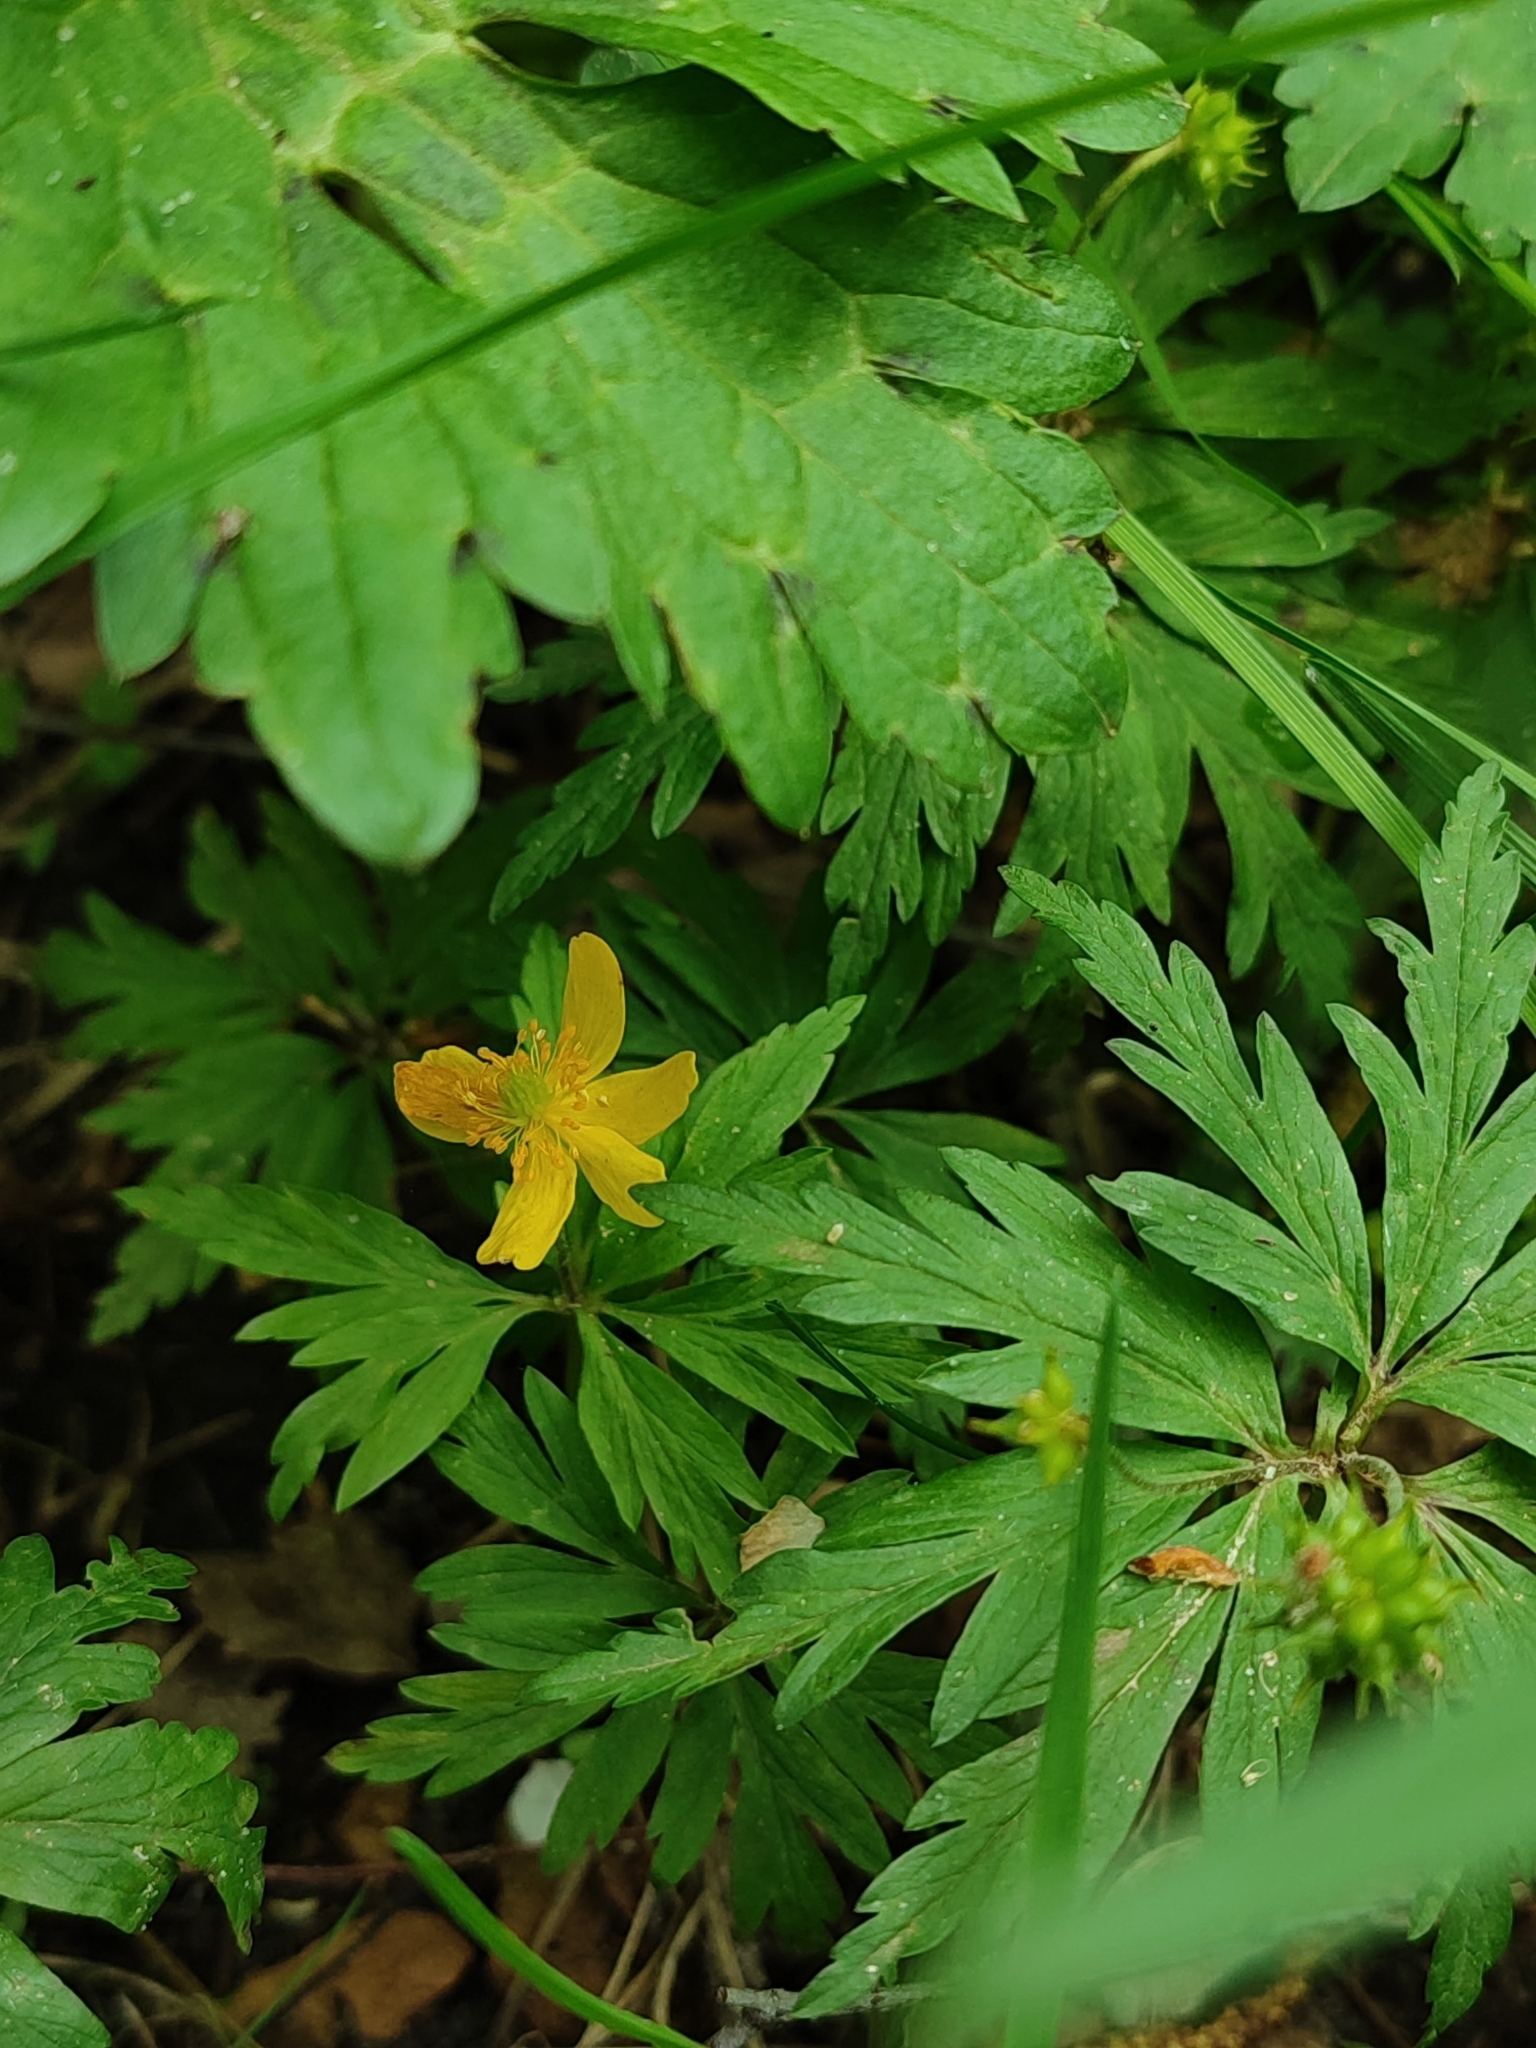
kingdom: Plantae
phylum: Tracheophyta
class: Magnoliopsida
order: Ranunculales
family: Ranunculaceae
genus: Anemone
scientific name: Anemone ranunculoides
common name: Yellow anemone
